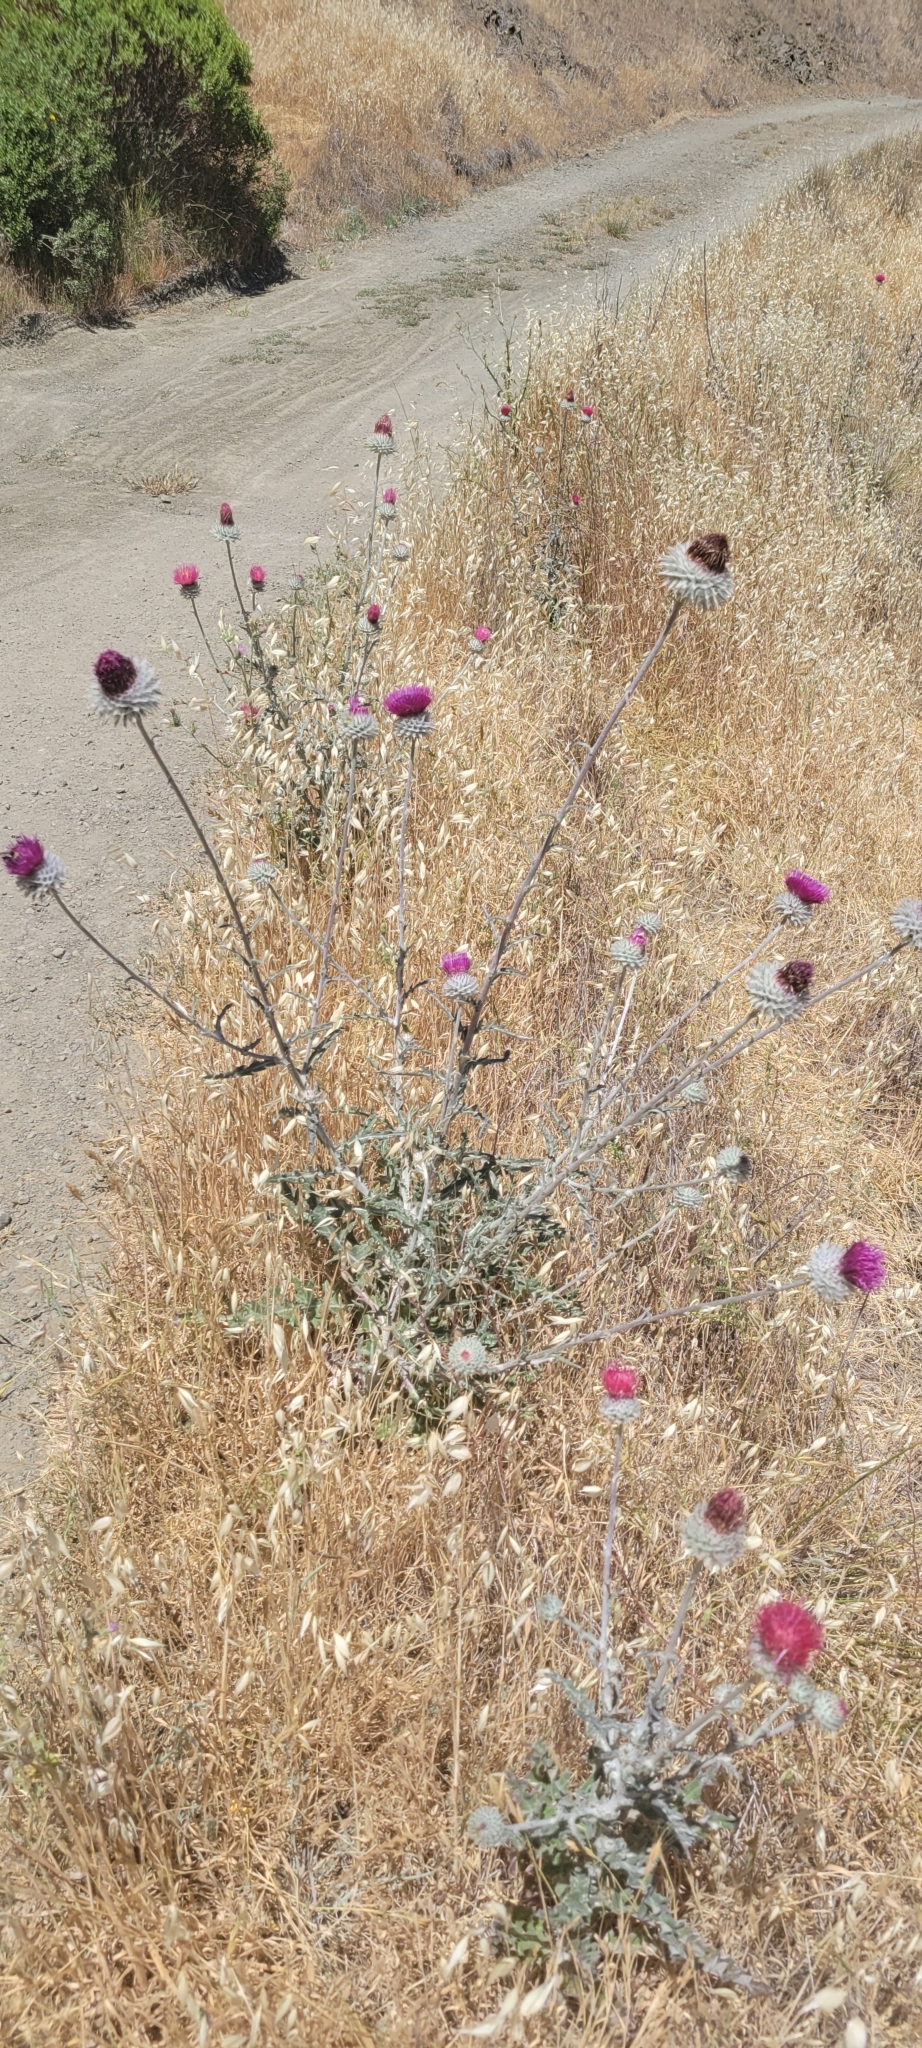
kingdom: Plantae
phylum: Tracheophyta
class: Magnoliopsida
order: Asterales
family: Asteraceae
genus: Cirsium
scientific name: Cirsium occidentale
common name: Western thistle
